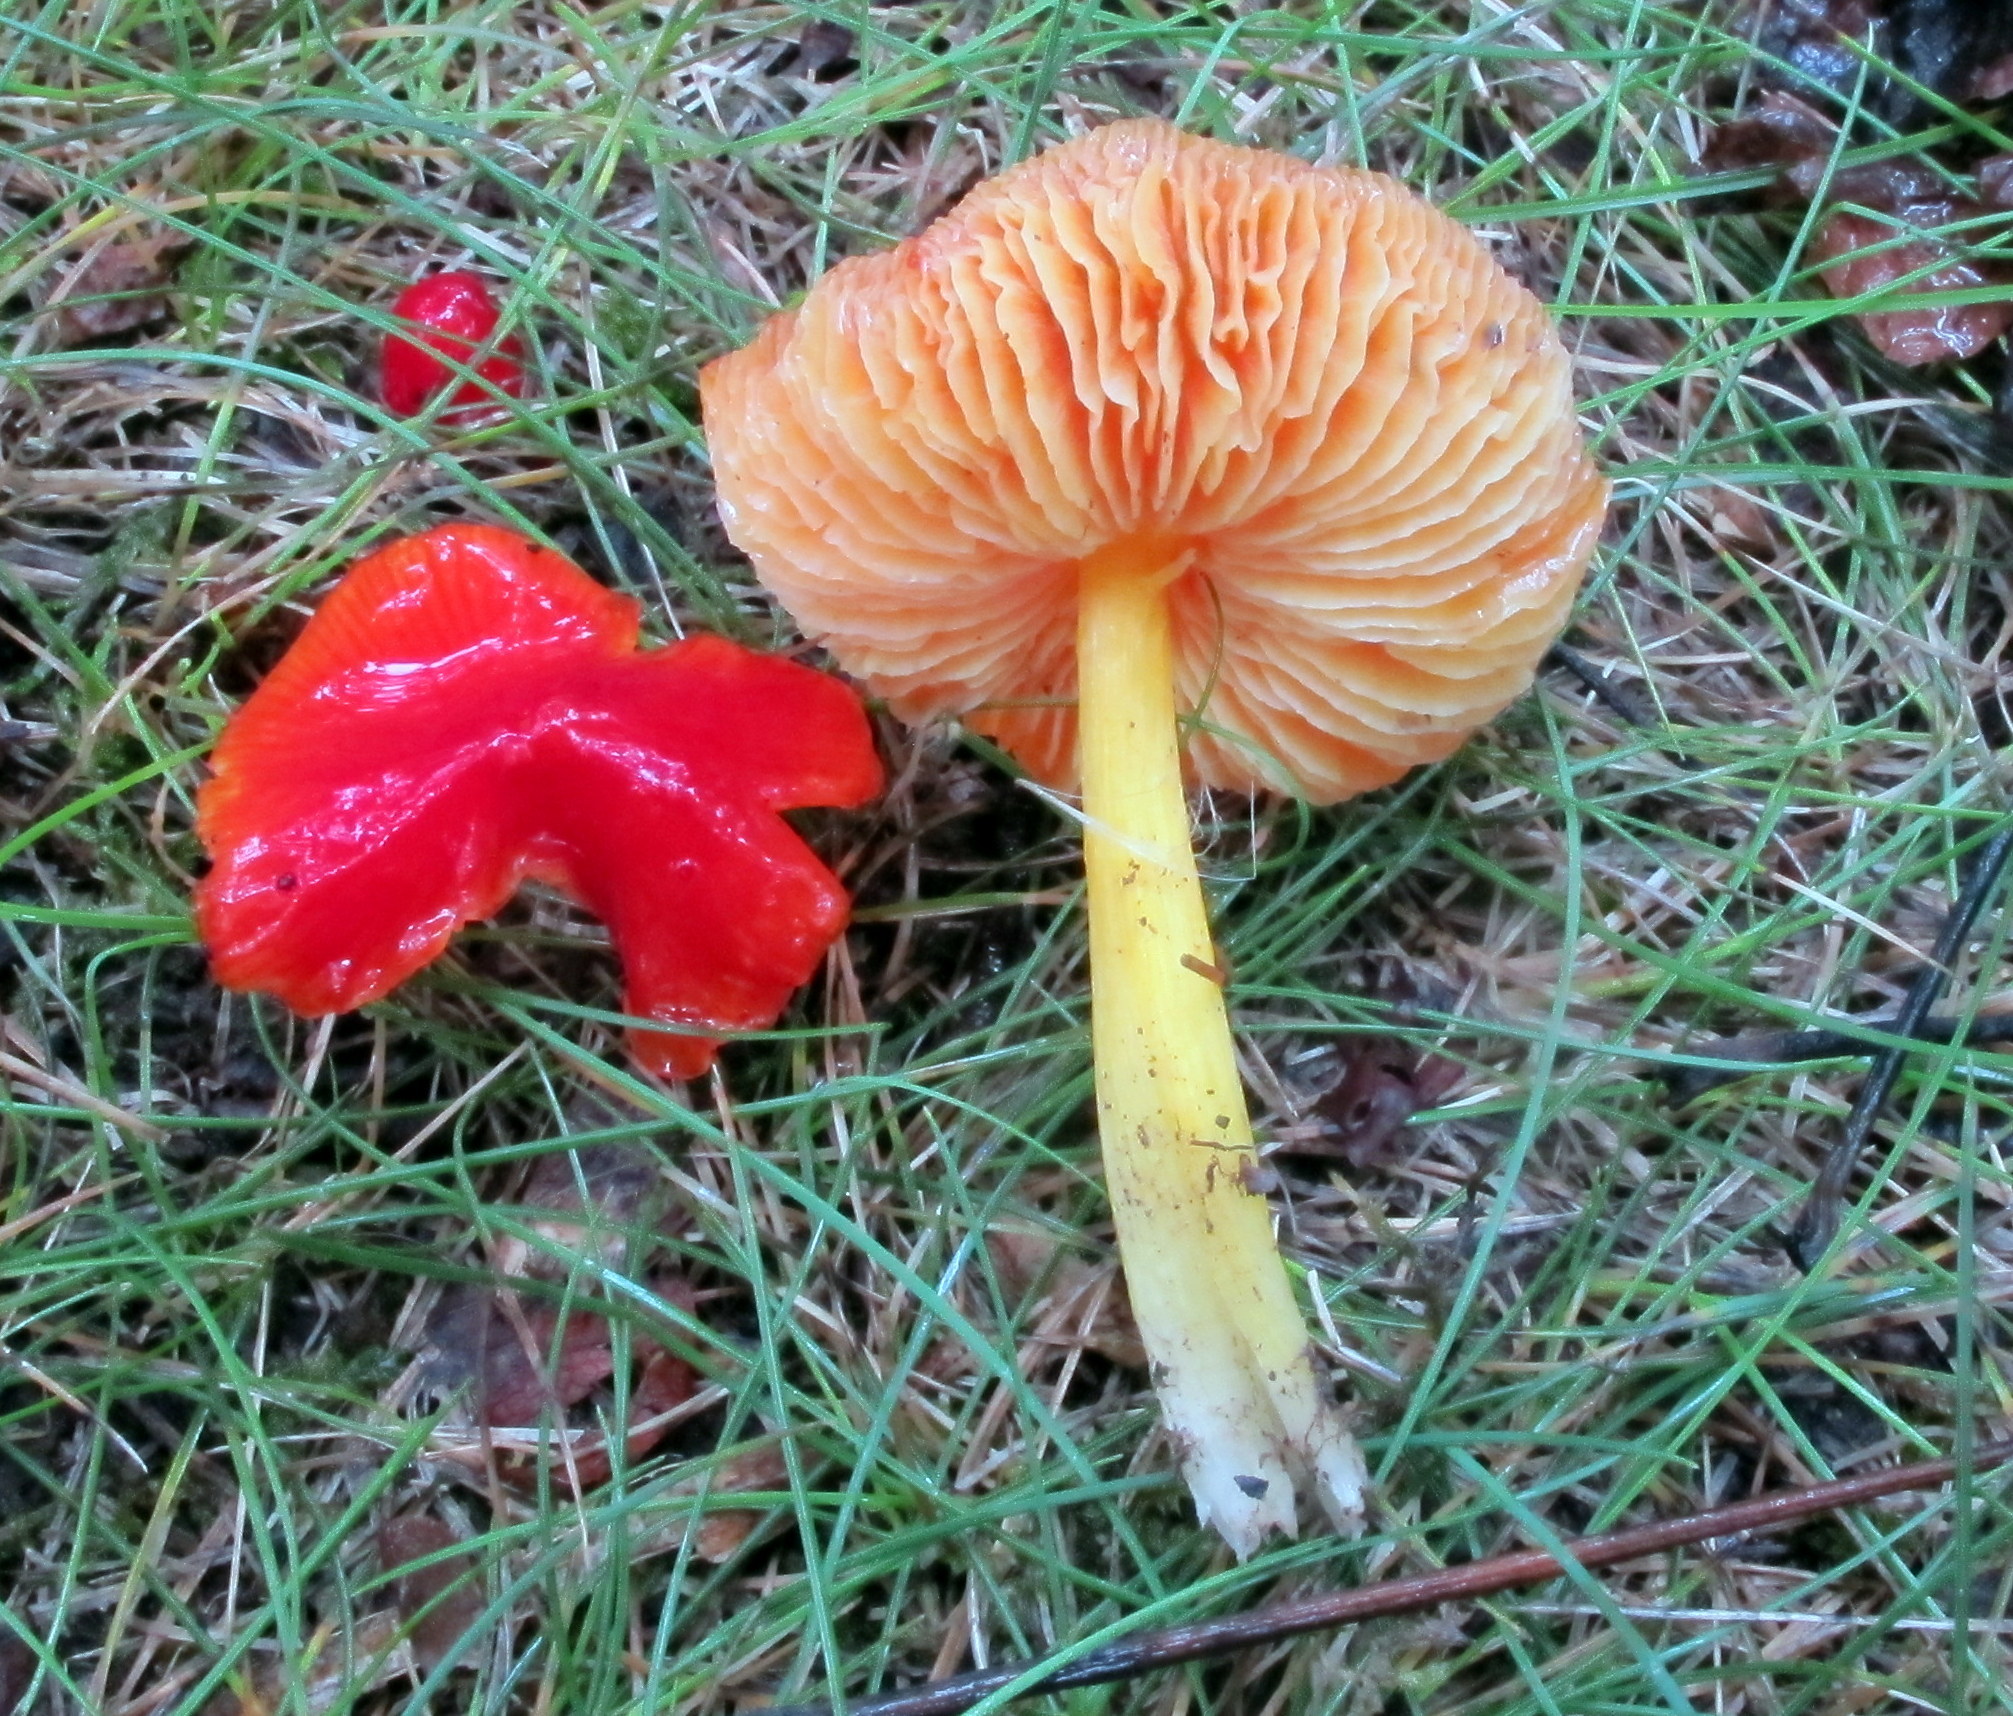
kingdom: Fungi
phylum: Basidiomycota
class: Agaricomycetes
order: Agaricales
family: Hygrophoraceae
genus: Hygrocybe
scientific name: Hygrocybe cuspidata
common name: Candy apple waxy cap
